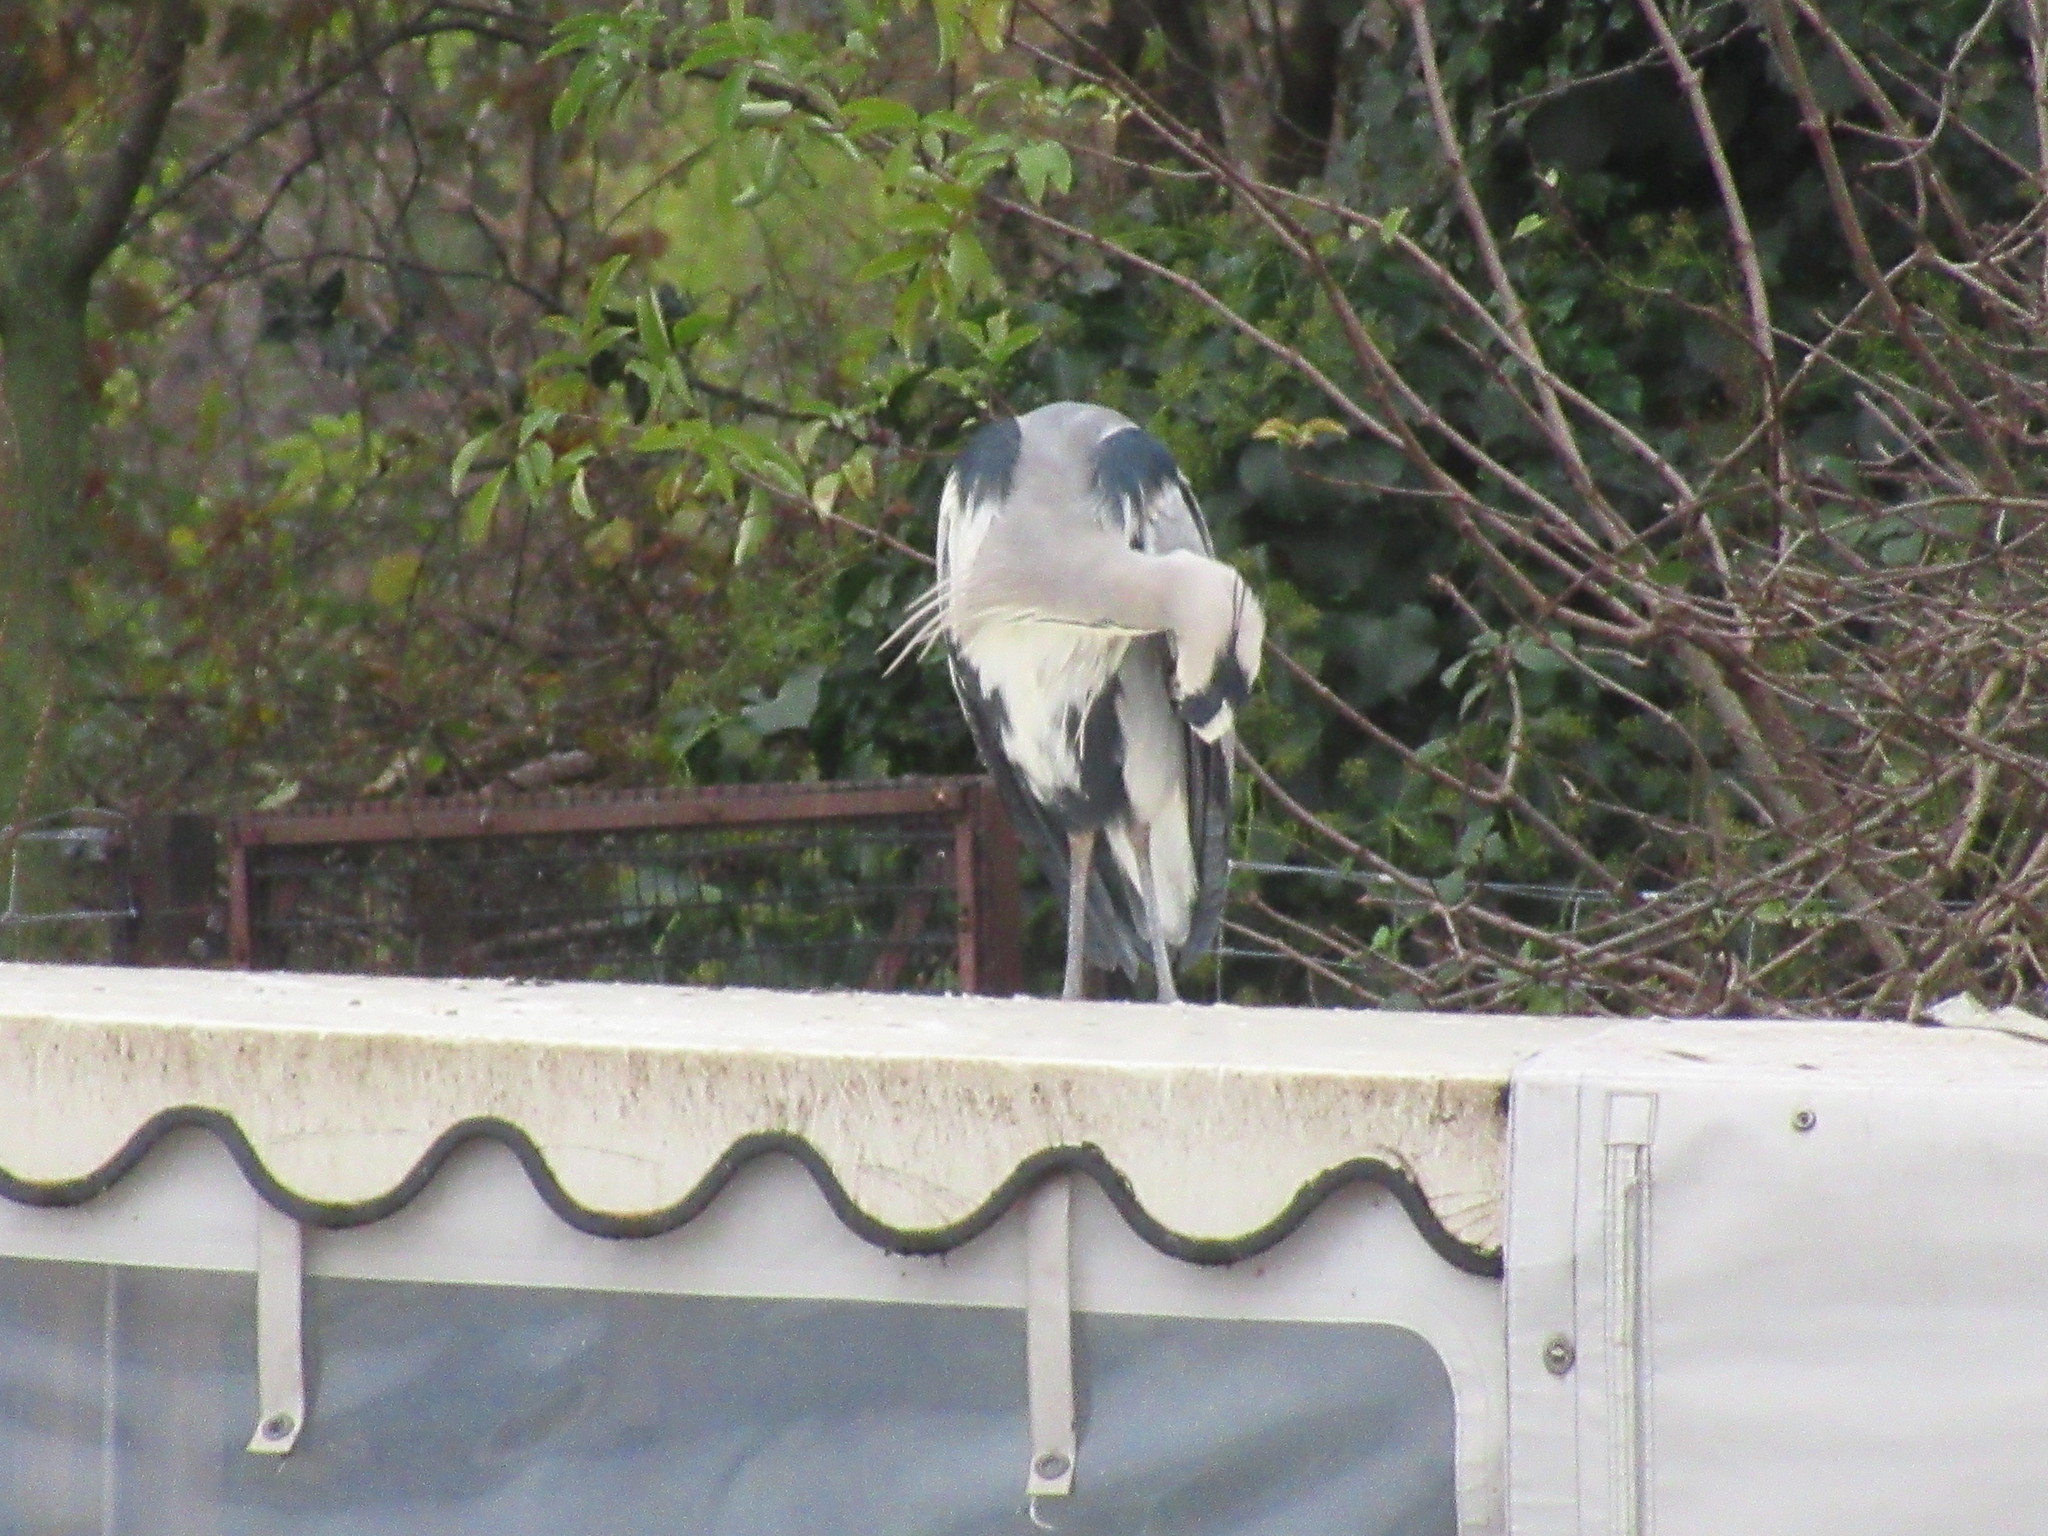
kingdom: Animalia
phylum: Chordata
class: Aves
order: Pelecaniformes
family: Ardeidae
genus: Ardea
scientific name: Ardea cinerea
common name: Grey heron
